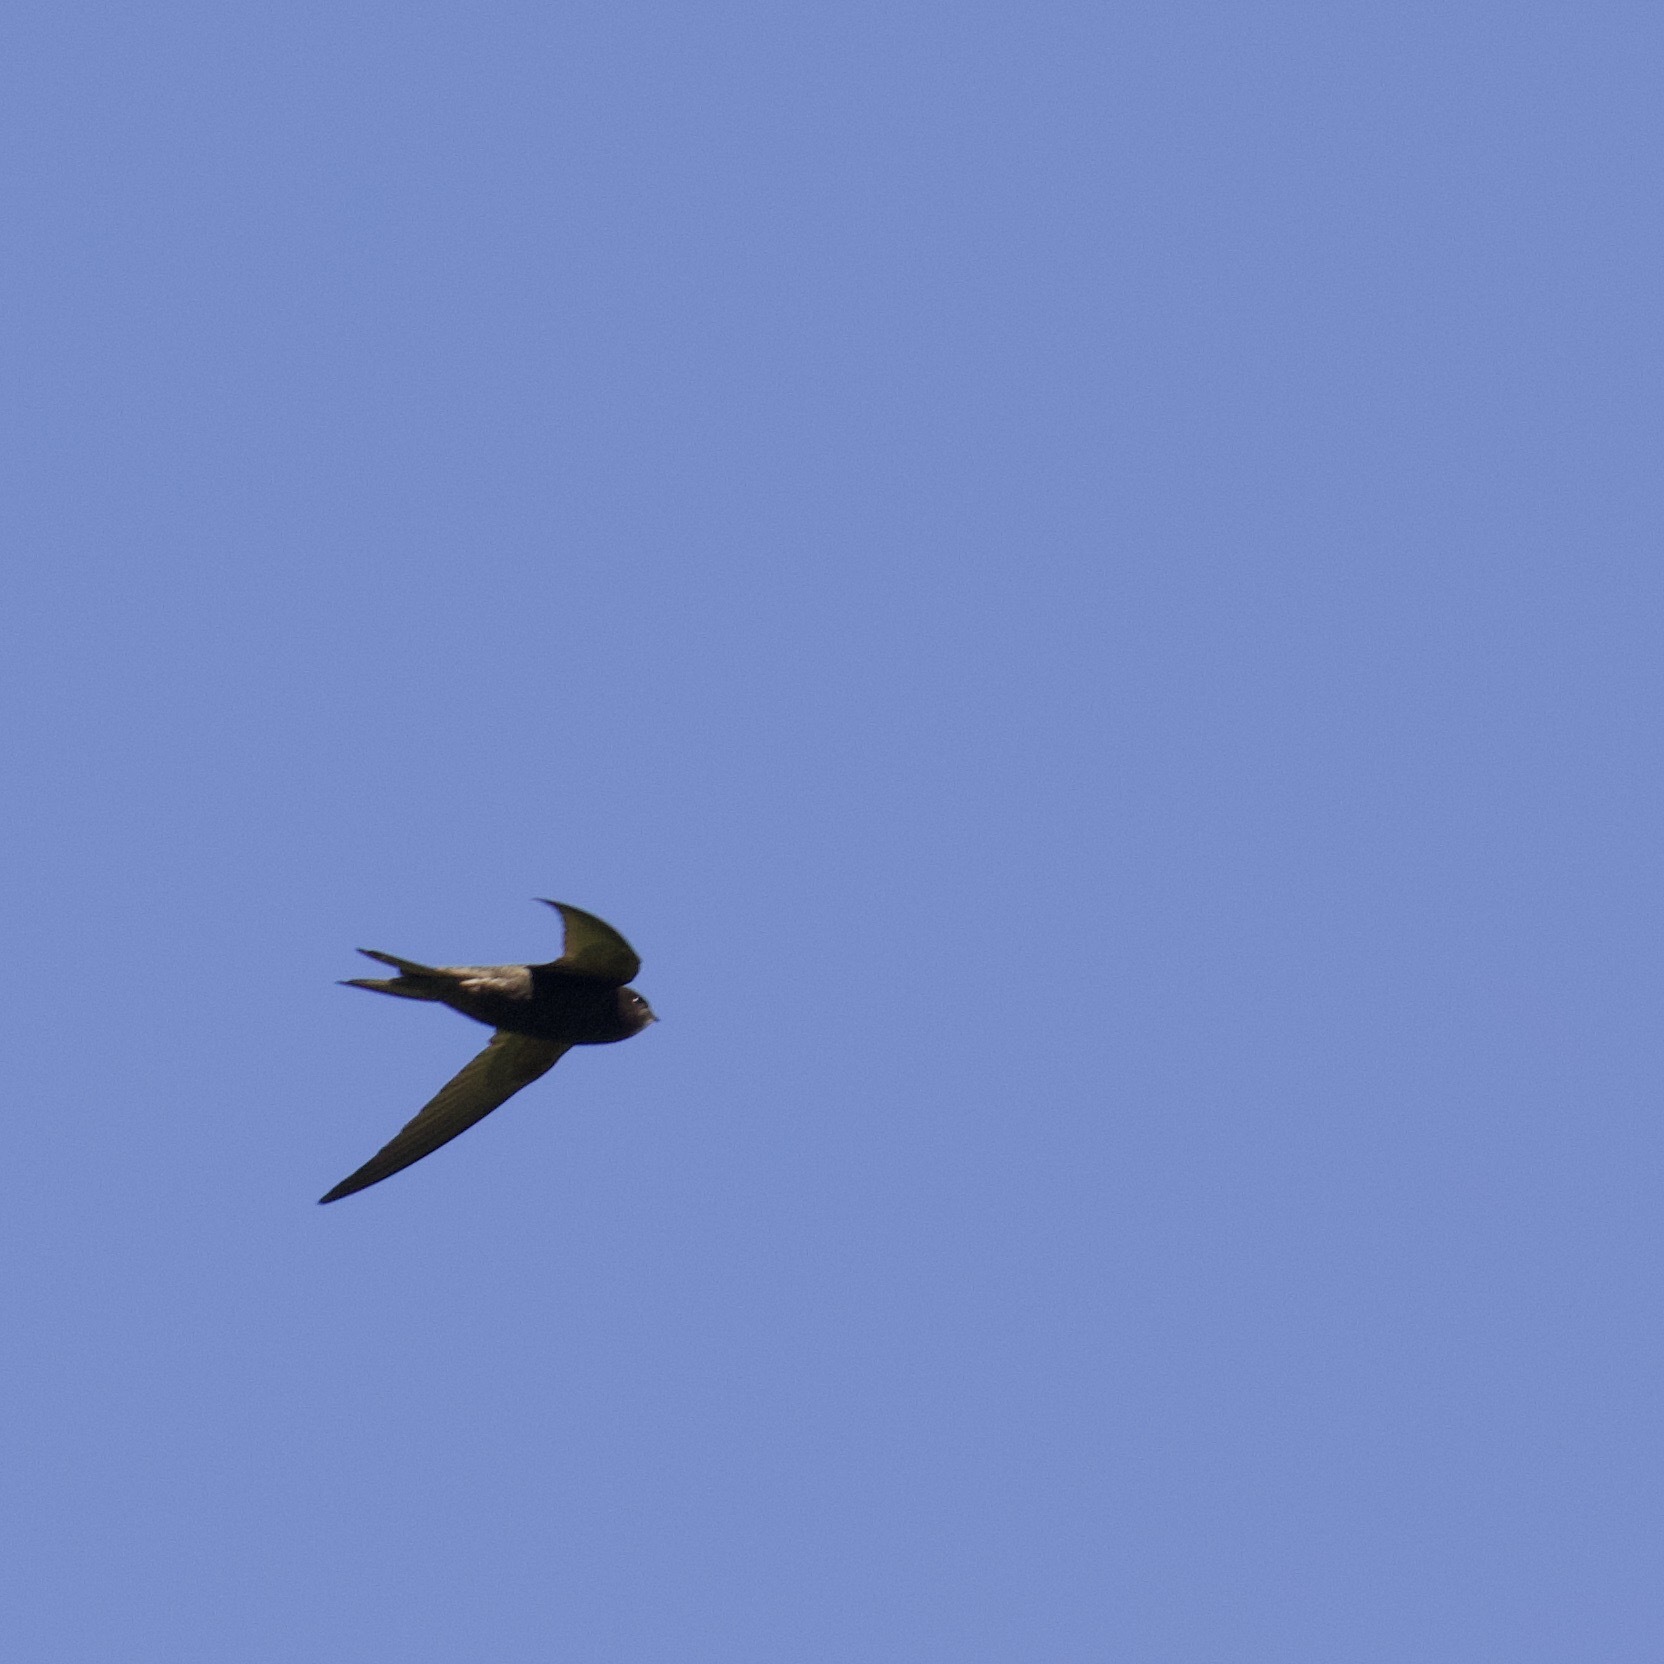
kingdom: Animalia
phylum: Chordata
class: Aves
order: Apodiformes
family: Apodidae
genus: Apus
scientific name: Apus apus
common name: Common swift
